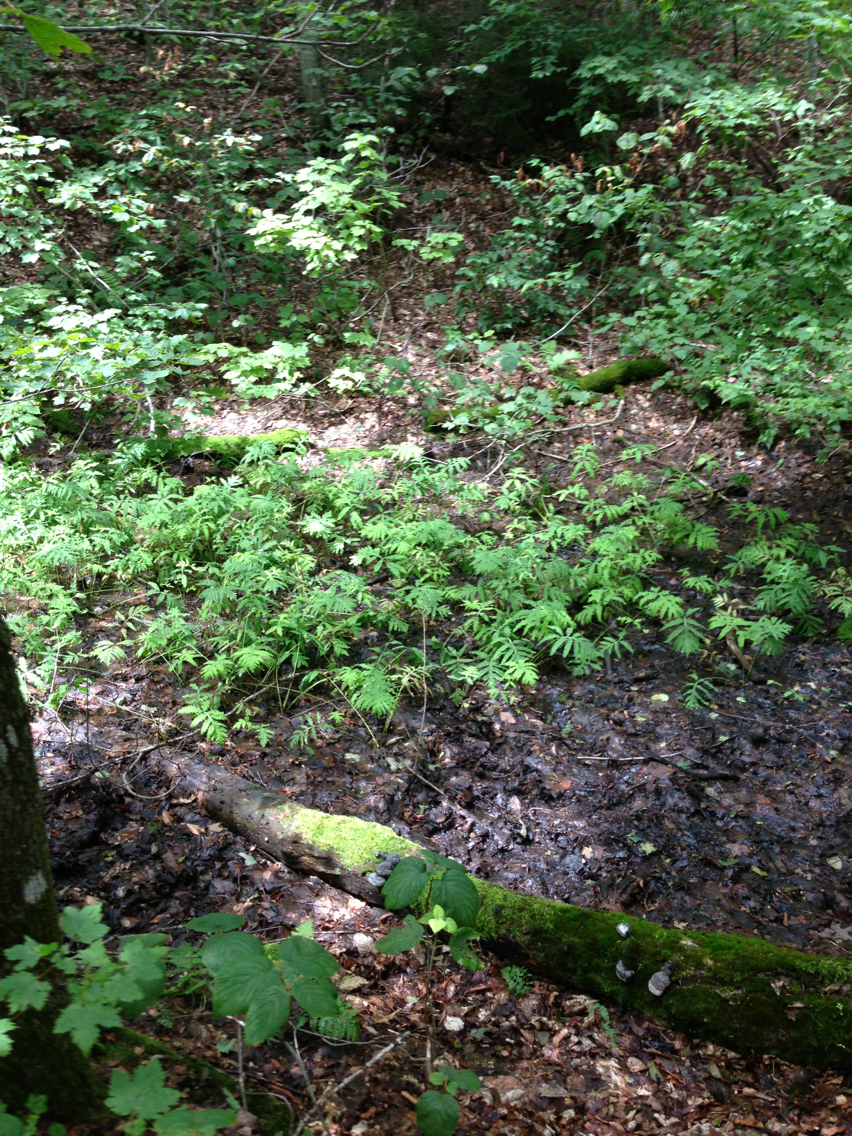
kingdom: Plantae
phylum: Tracheophyta
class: Polypodiopsida
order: Polypodiales
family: Onocleaceae
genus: Onoclea
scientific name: Onoclea sensibilis
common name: Sensitive fern
